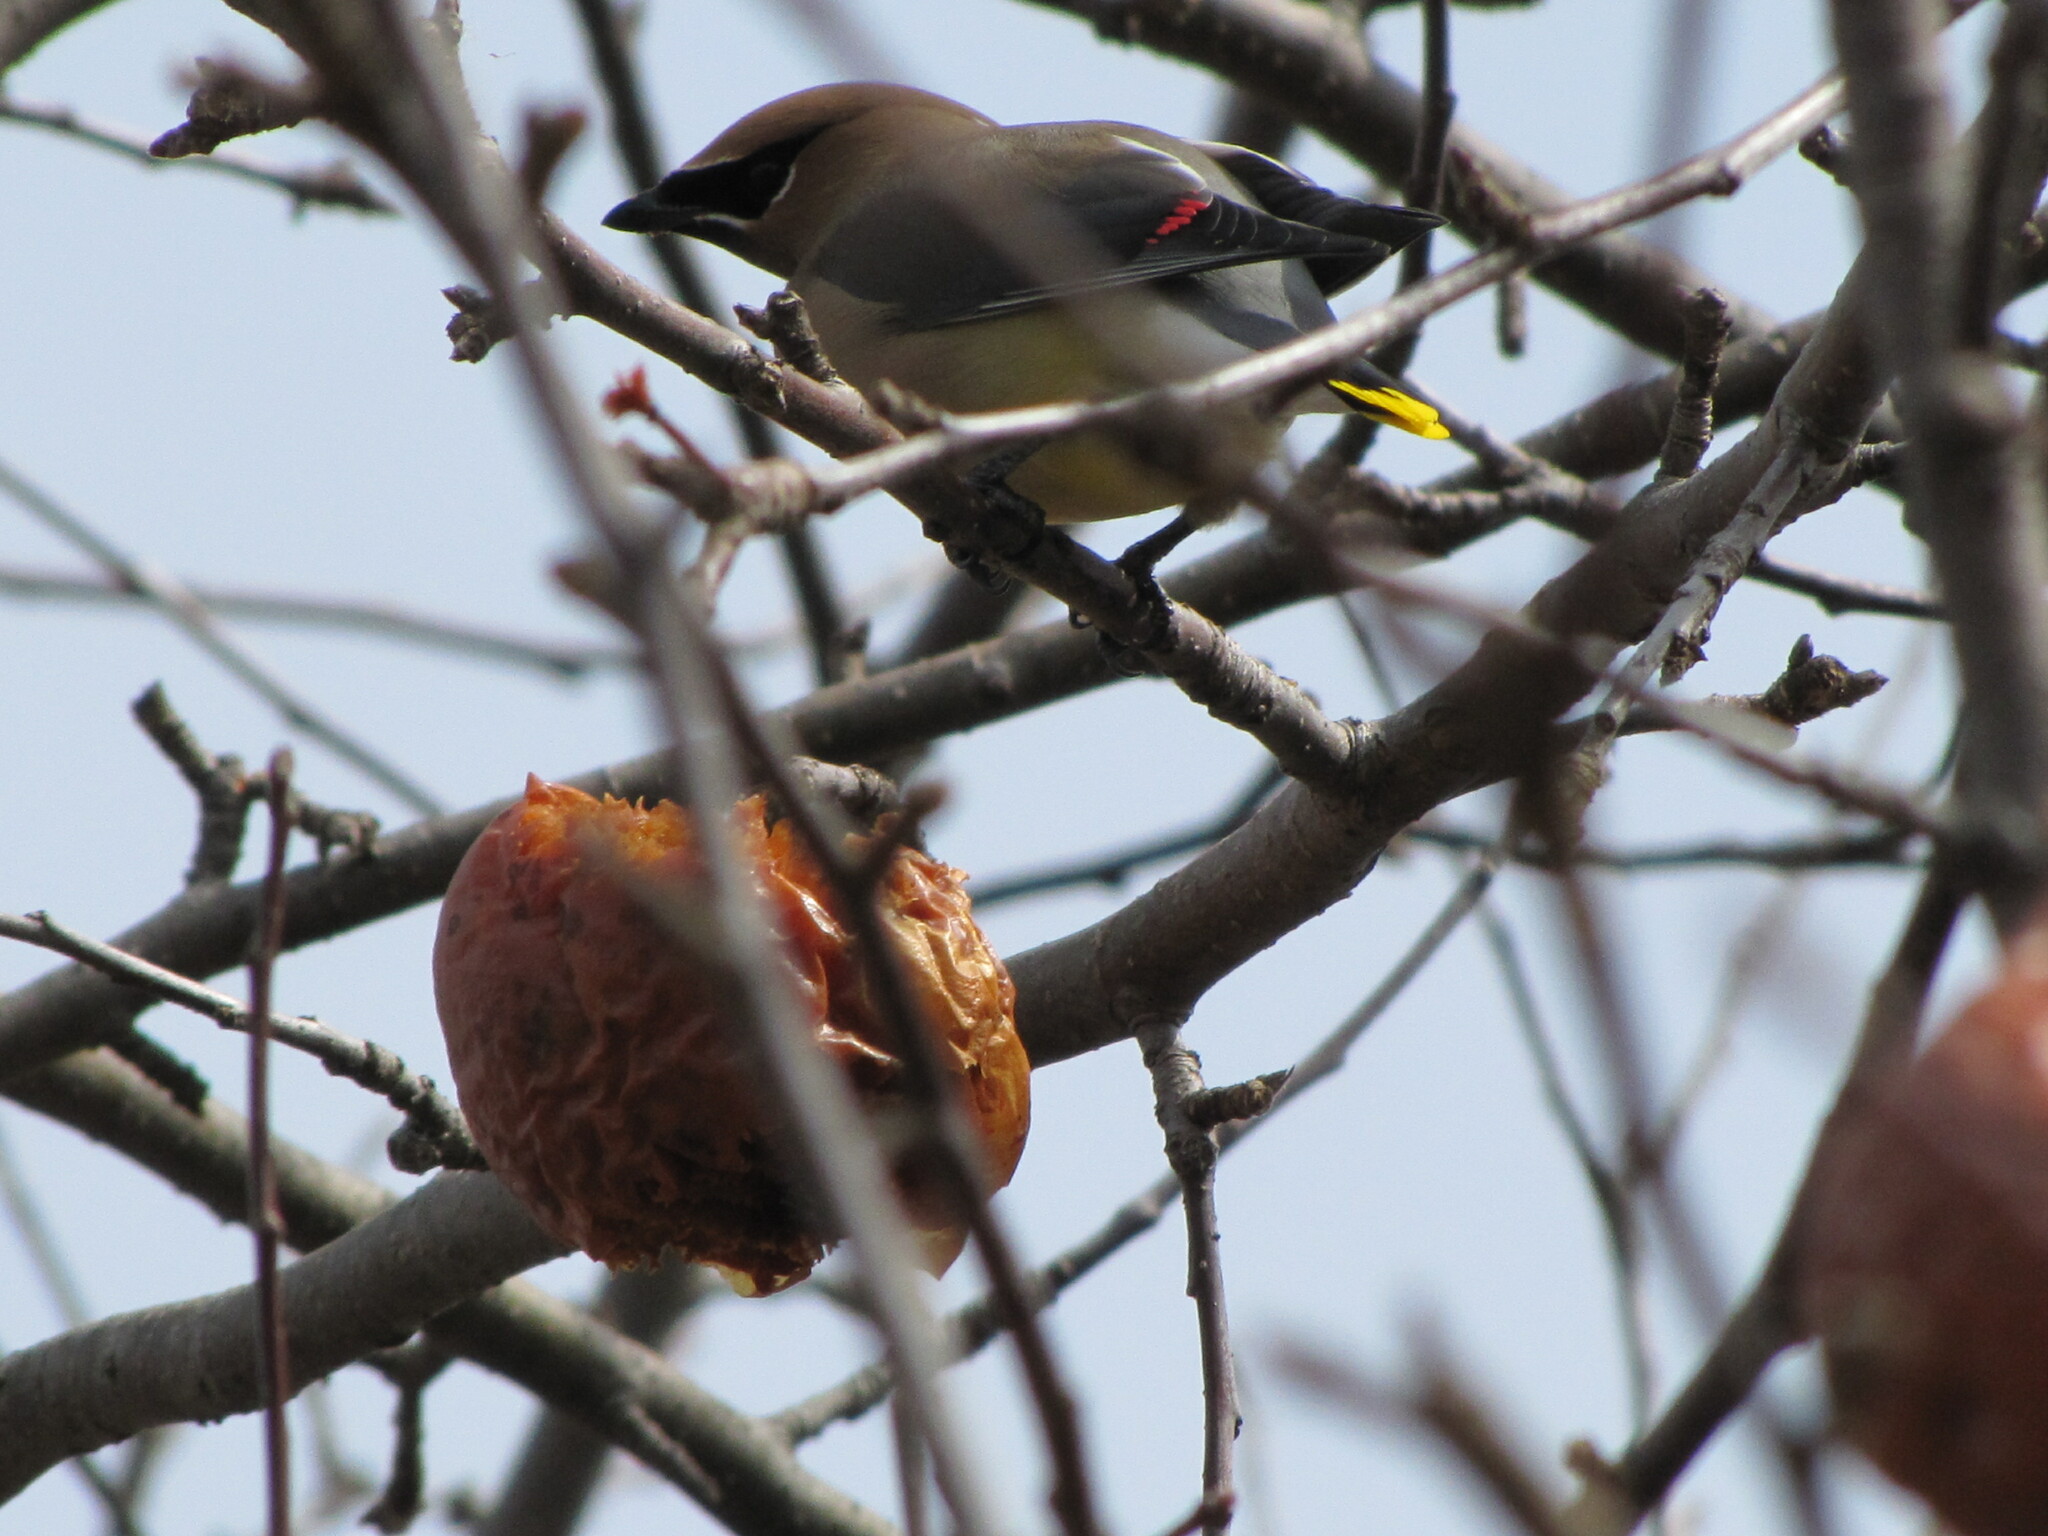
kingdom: Animalia
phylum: Chordata
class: Aves
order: Passeriformes
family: Bombycillidae
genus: Bombycilla
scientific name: Bombycilla cedrorum
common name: Cedar waxwing
